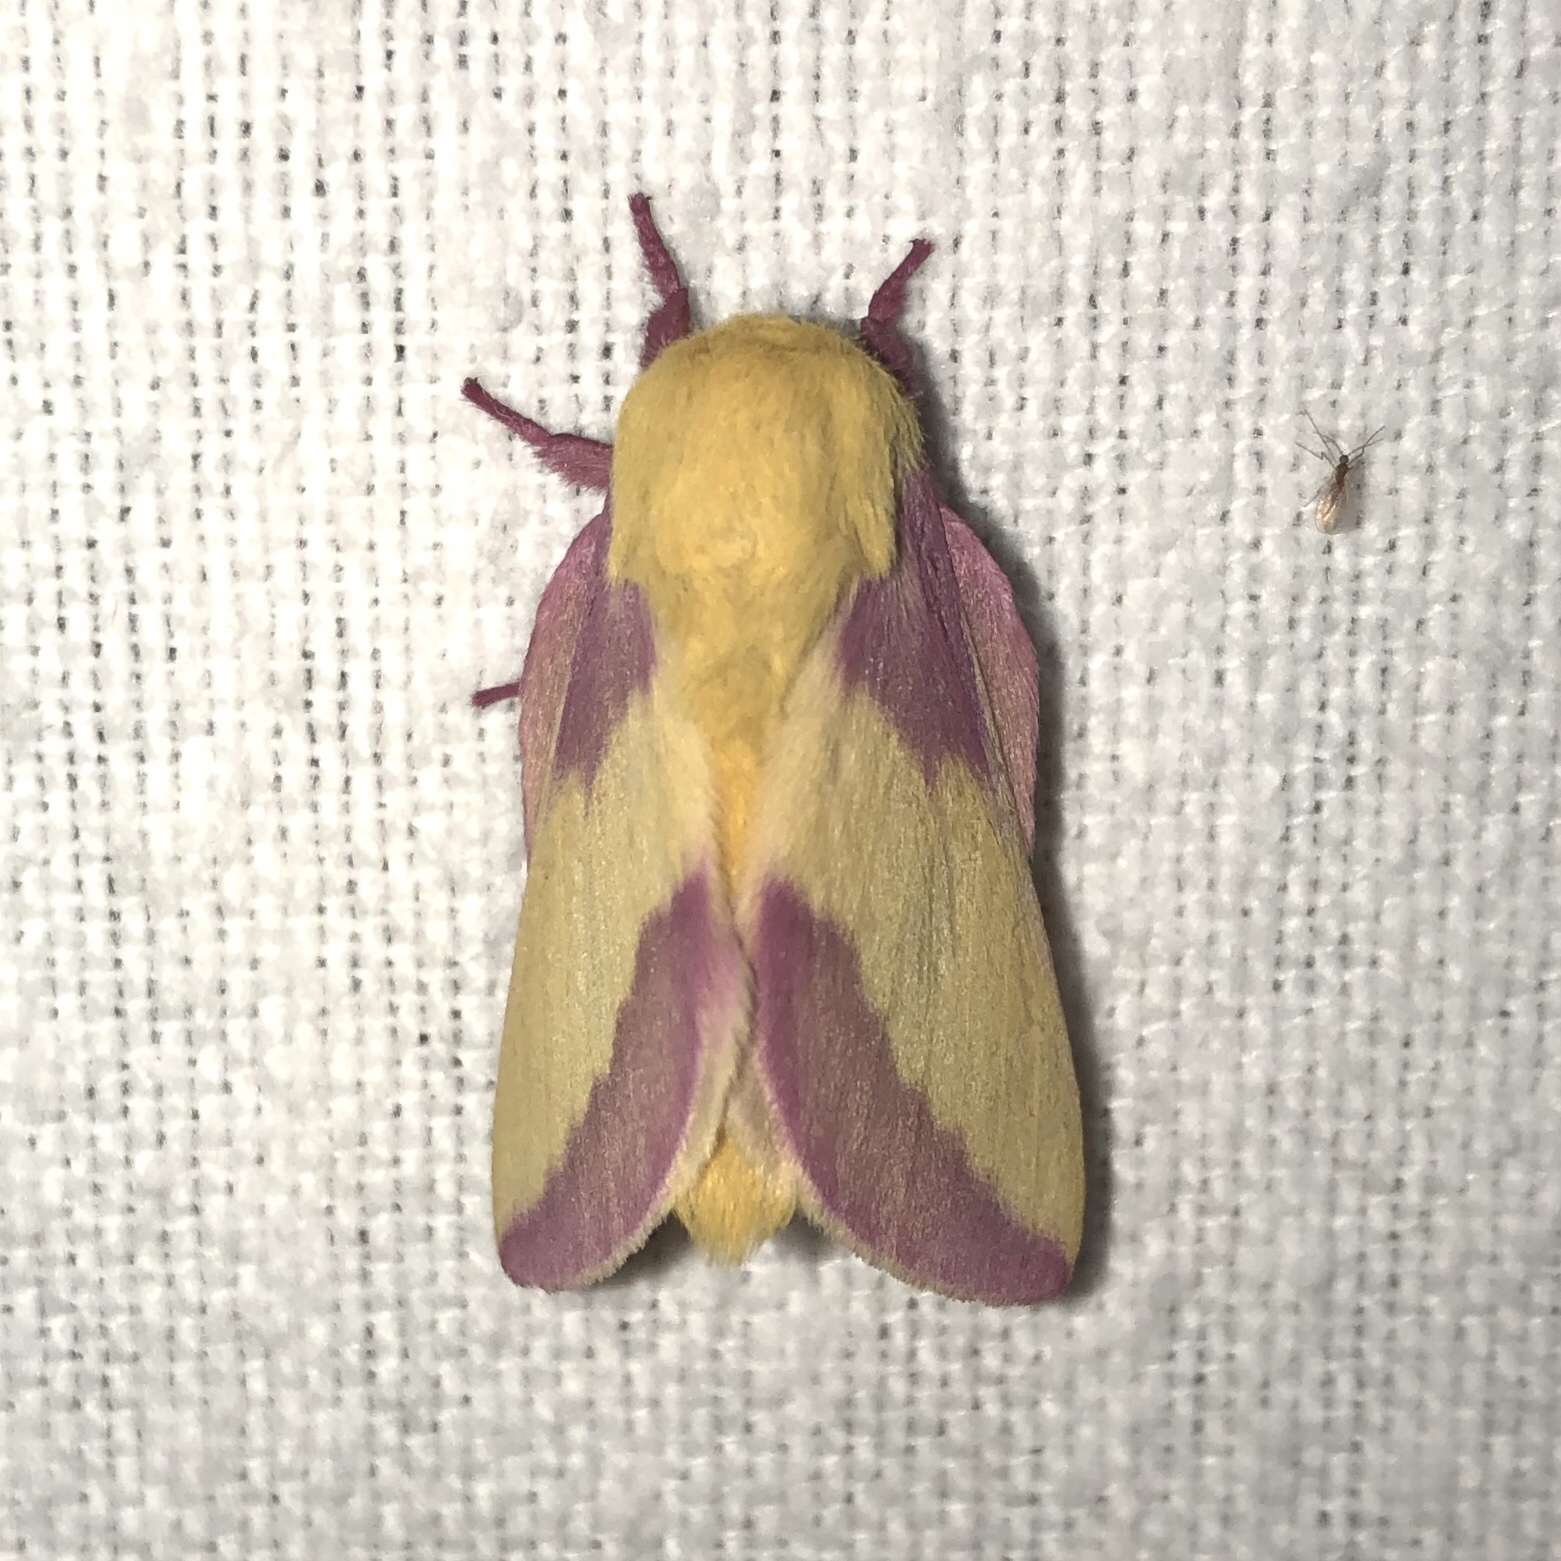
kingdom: Animalia
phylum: Arthropoda
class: Insecta
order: Lepidoptera
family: Saturniidae
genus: Dryocampa
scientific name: Dryocampa rubicunda
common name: Rosy maple moth
